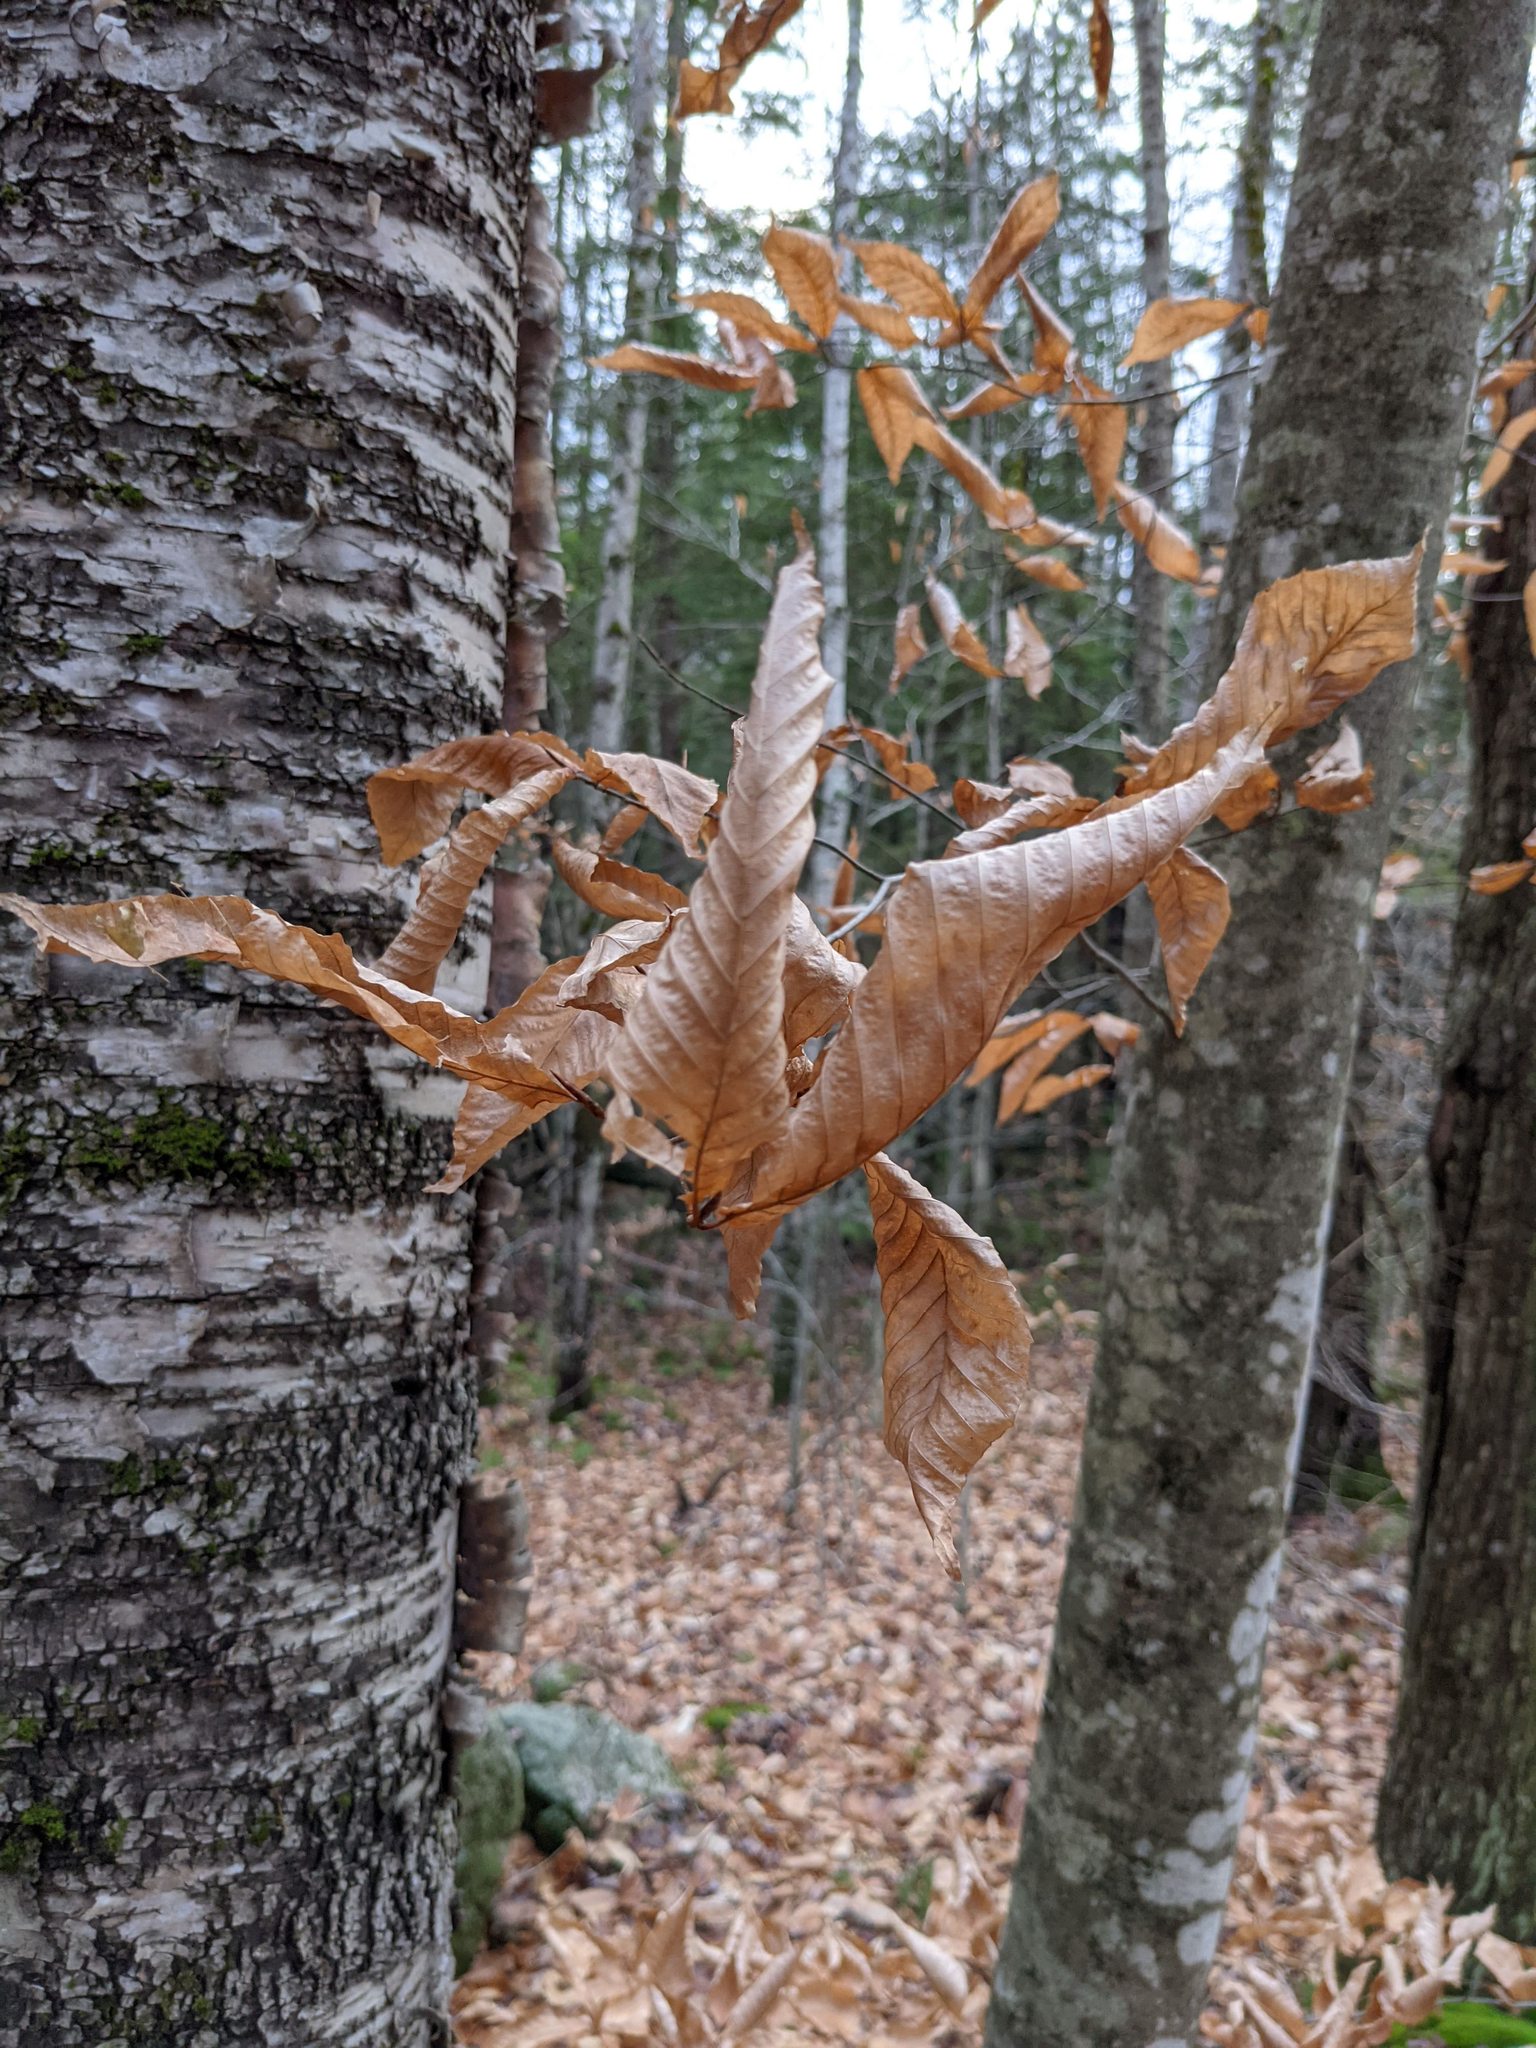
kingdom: Plantae
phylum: Tracheophyta
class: Magnoliopsida
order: Fagales
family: Fagaceae
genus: Fagus
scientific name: Fagus grandifolia
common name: American beech
